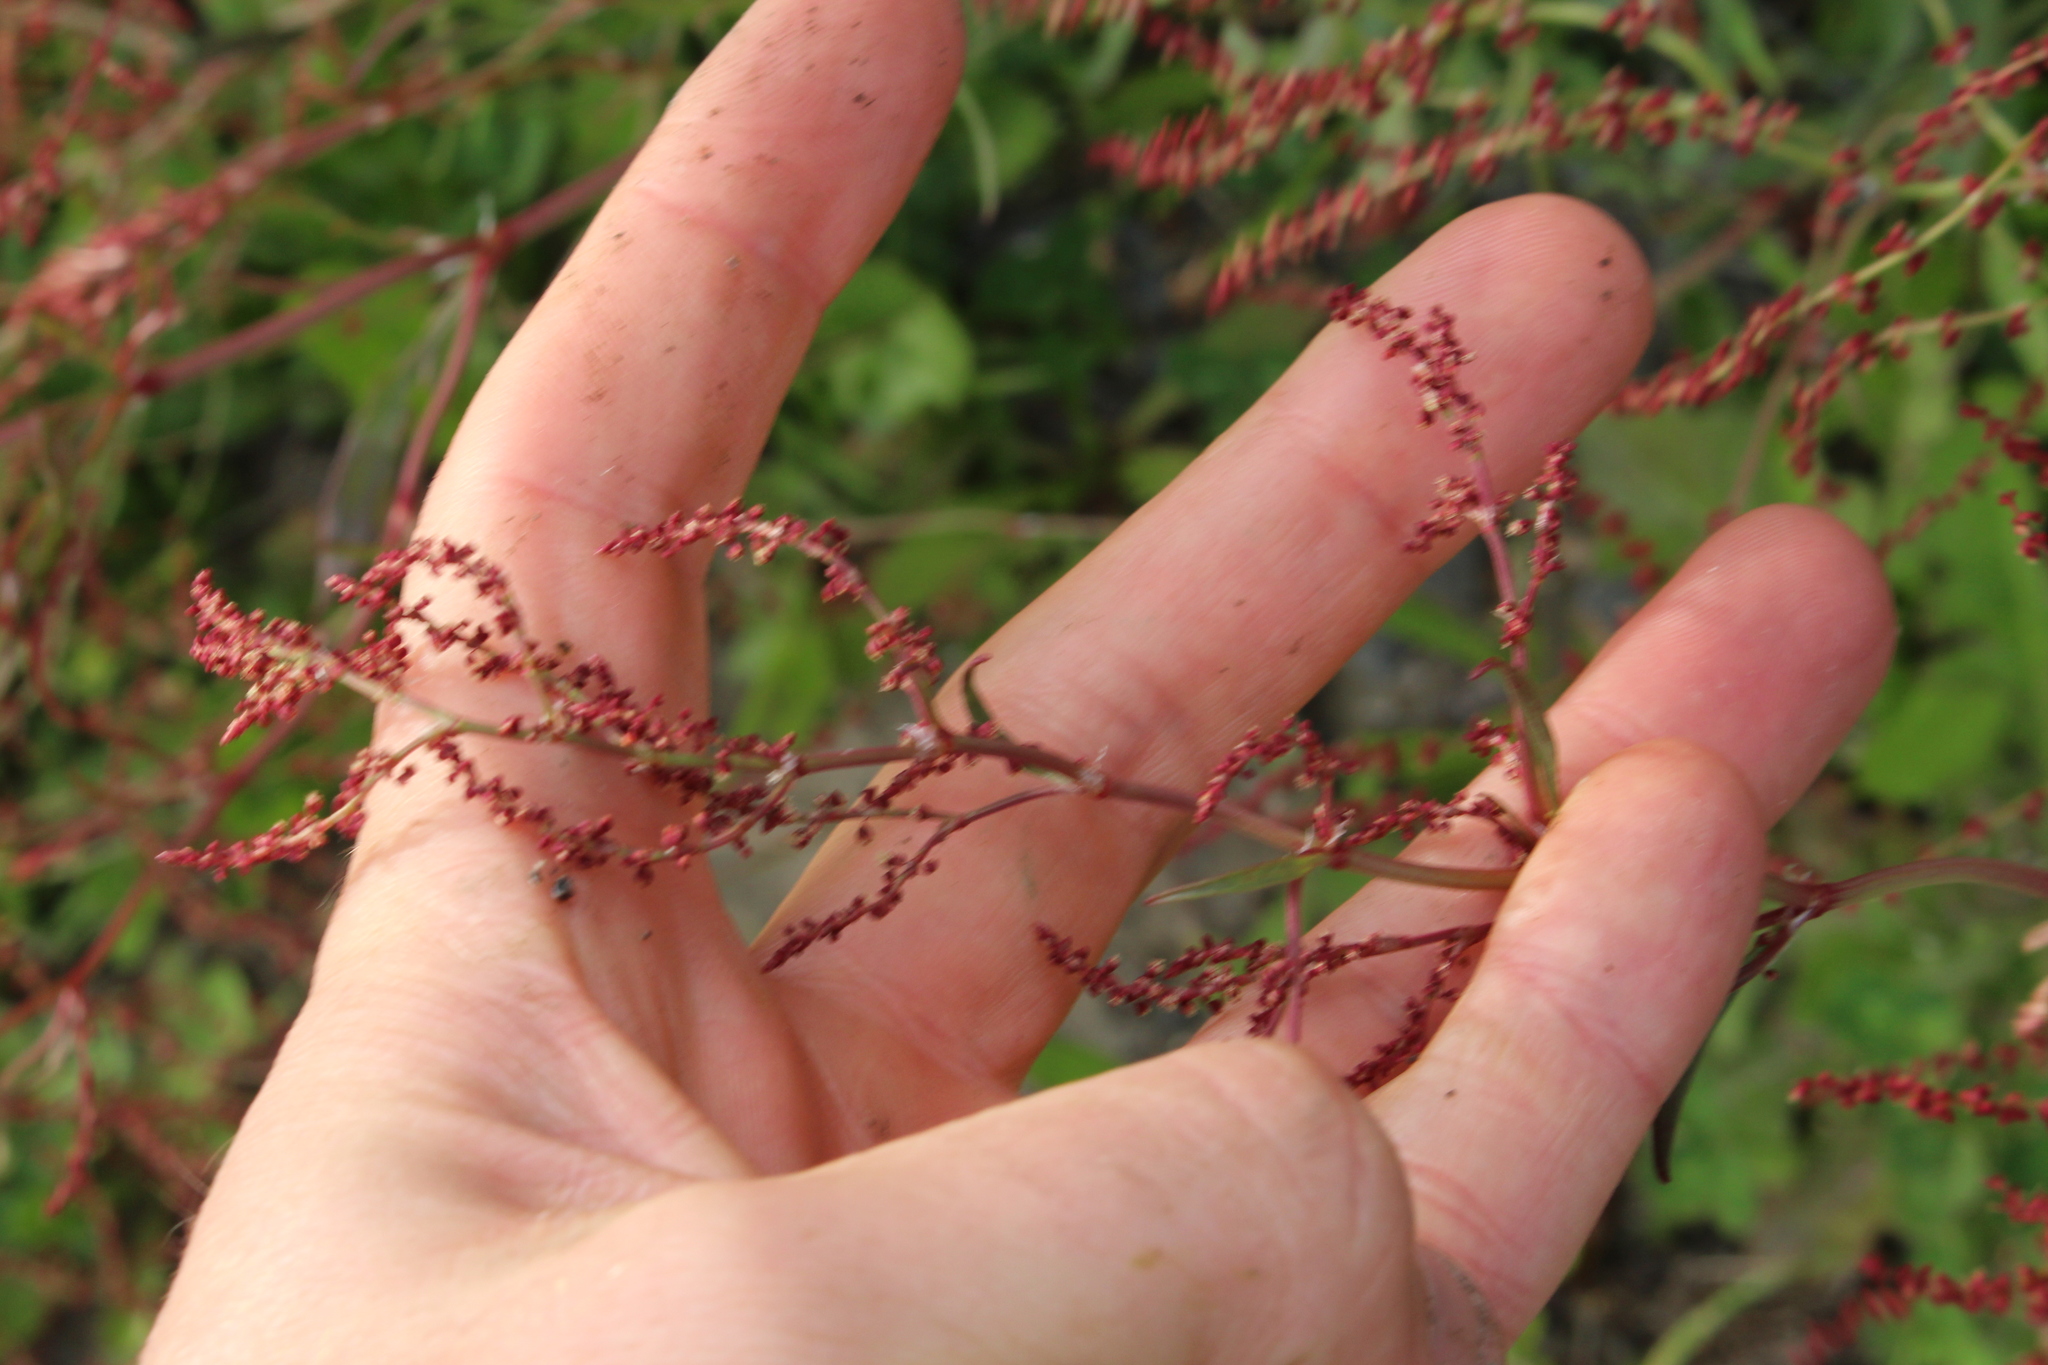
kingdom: Plantae
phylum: Tracheophyta
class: Magnoliopsida
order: Caryophyllales
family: Polygonaceae
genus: Rumex
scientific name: Rumex acetosella
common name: Common sheep sorrel
